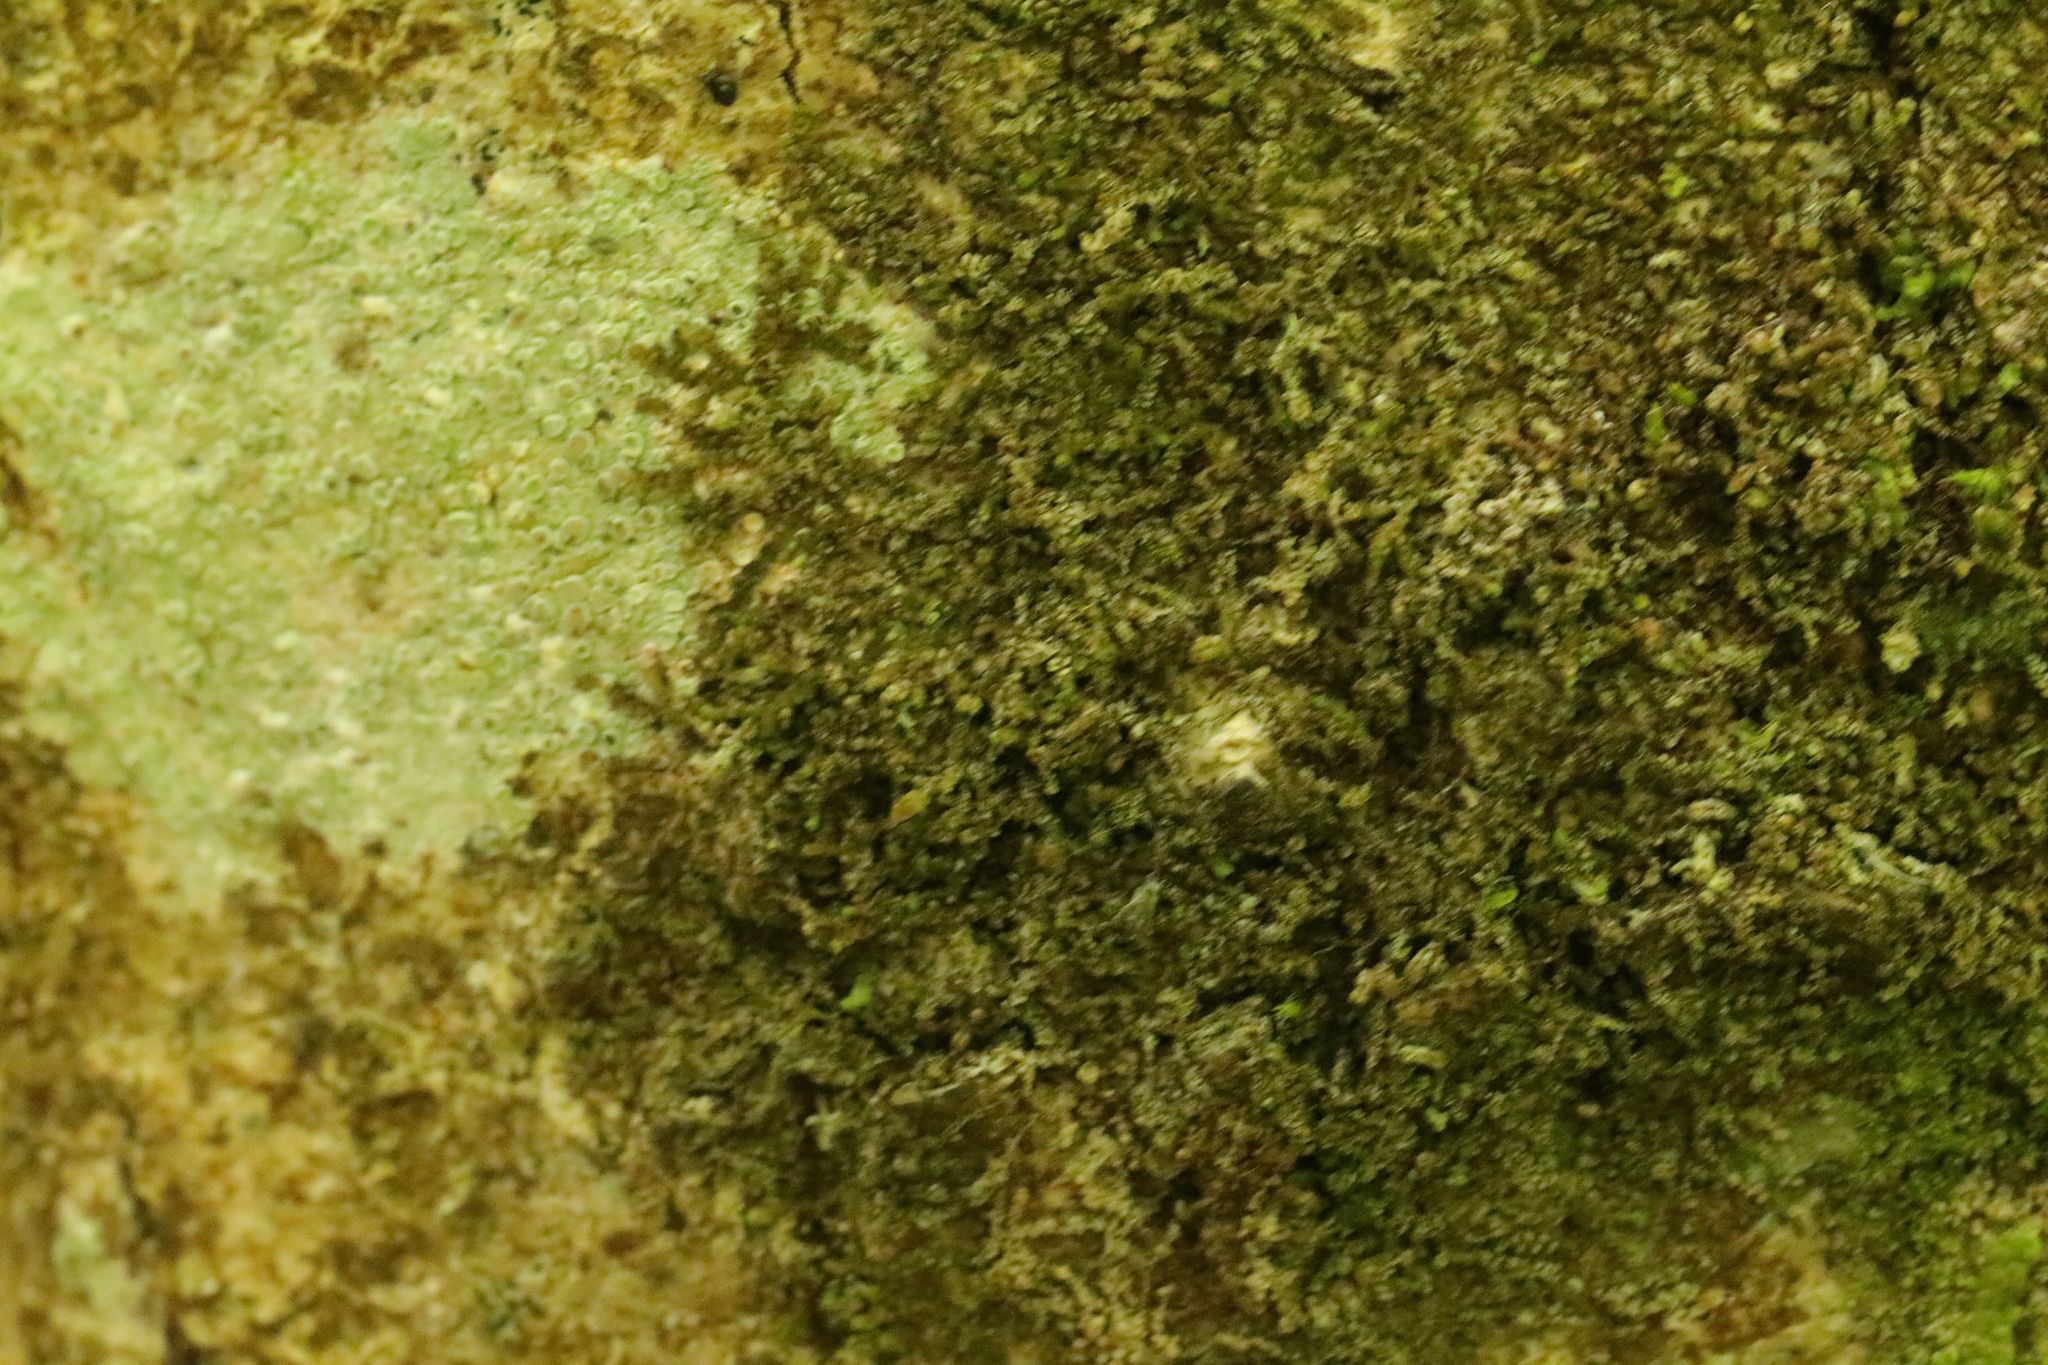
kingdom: Plantae
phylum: Marchantiophyta
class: Jungermanniopsida
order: Porellales
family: Frullaniaceae
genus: Frullania
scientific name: Frullania dilatata
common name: Dilated scalewort
